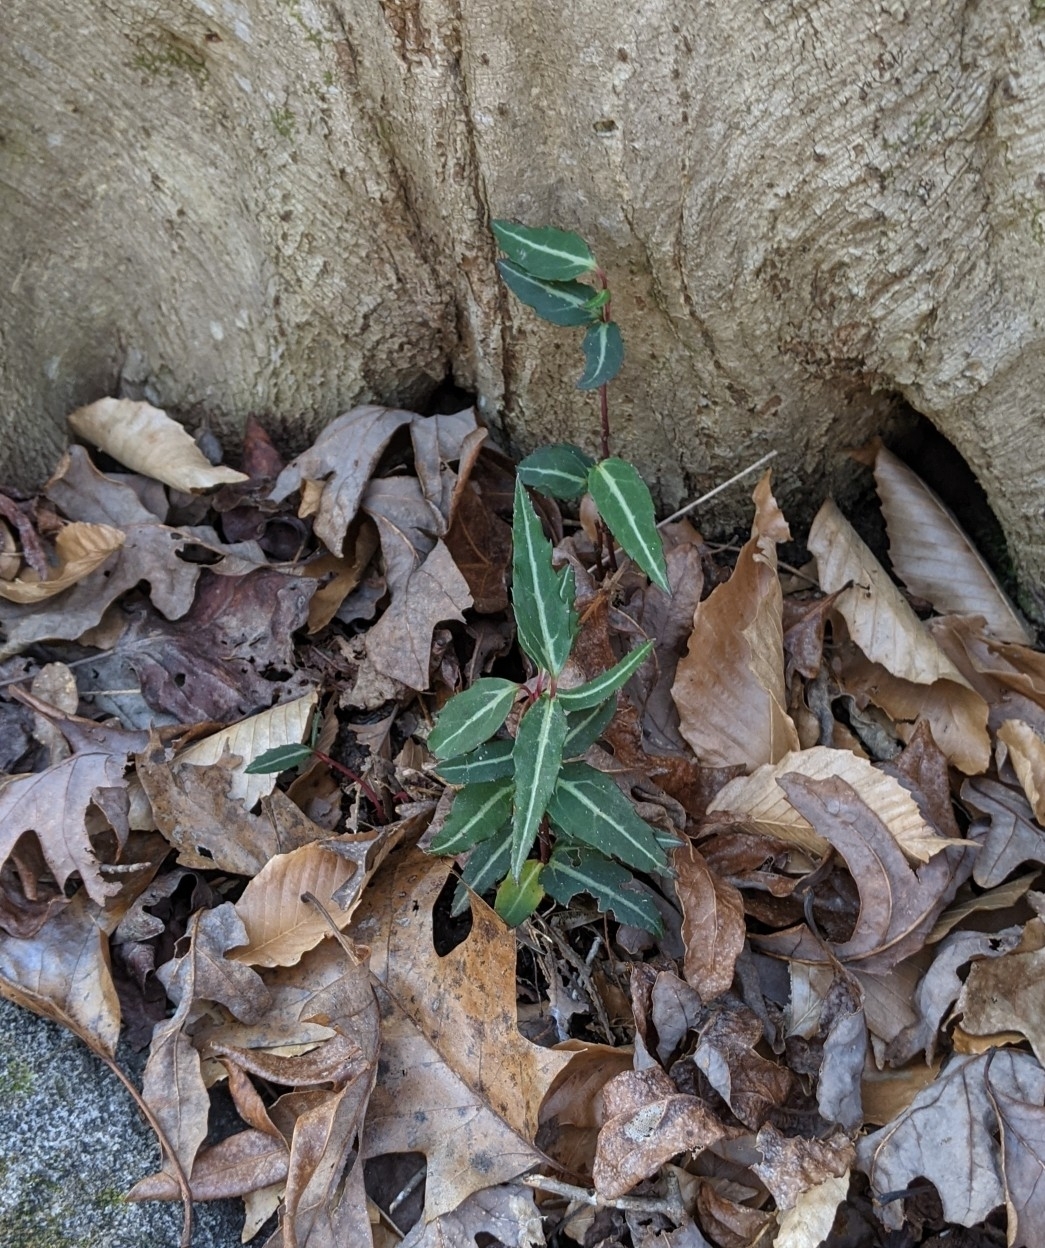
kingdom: Plantae
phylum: Tracheophyta
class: Magnoliopsida
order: Ericales
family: Ericaceae
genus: Chimaphila
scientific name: Chimaphila maculata
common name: Spotted pipsissewa
